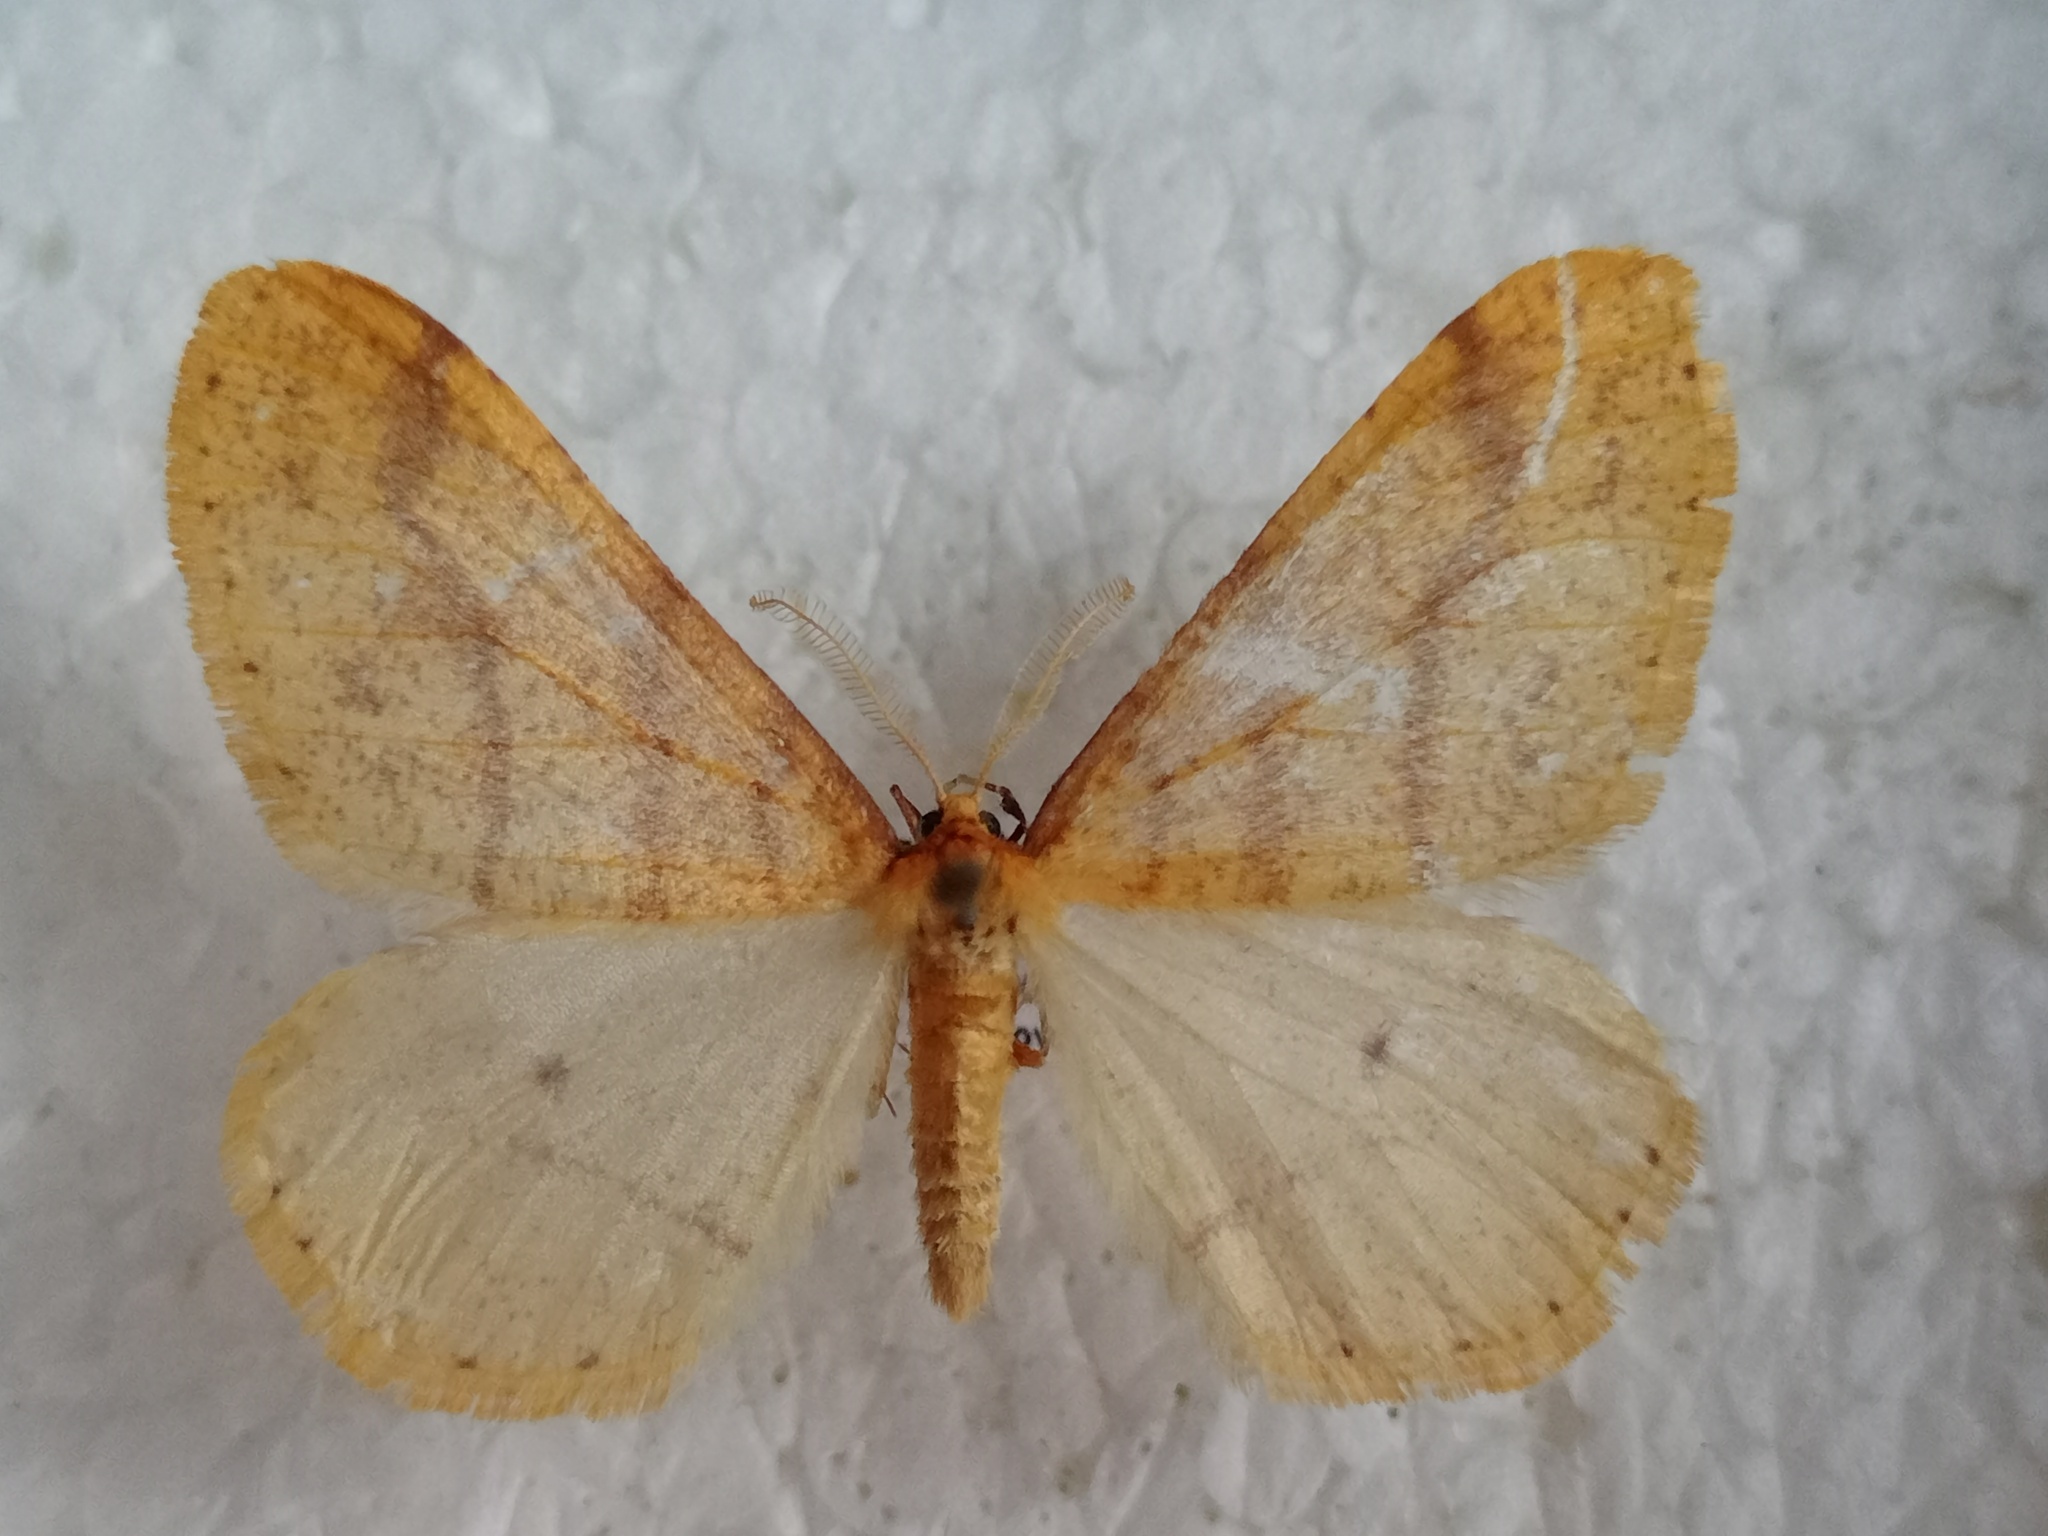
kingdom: Animalia
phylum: Arthropoda
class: Insecta
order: Lepidoptera
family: Geometridae
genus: Agriopis
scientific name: Agriopis aurantiaria
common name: Scarce umber
